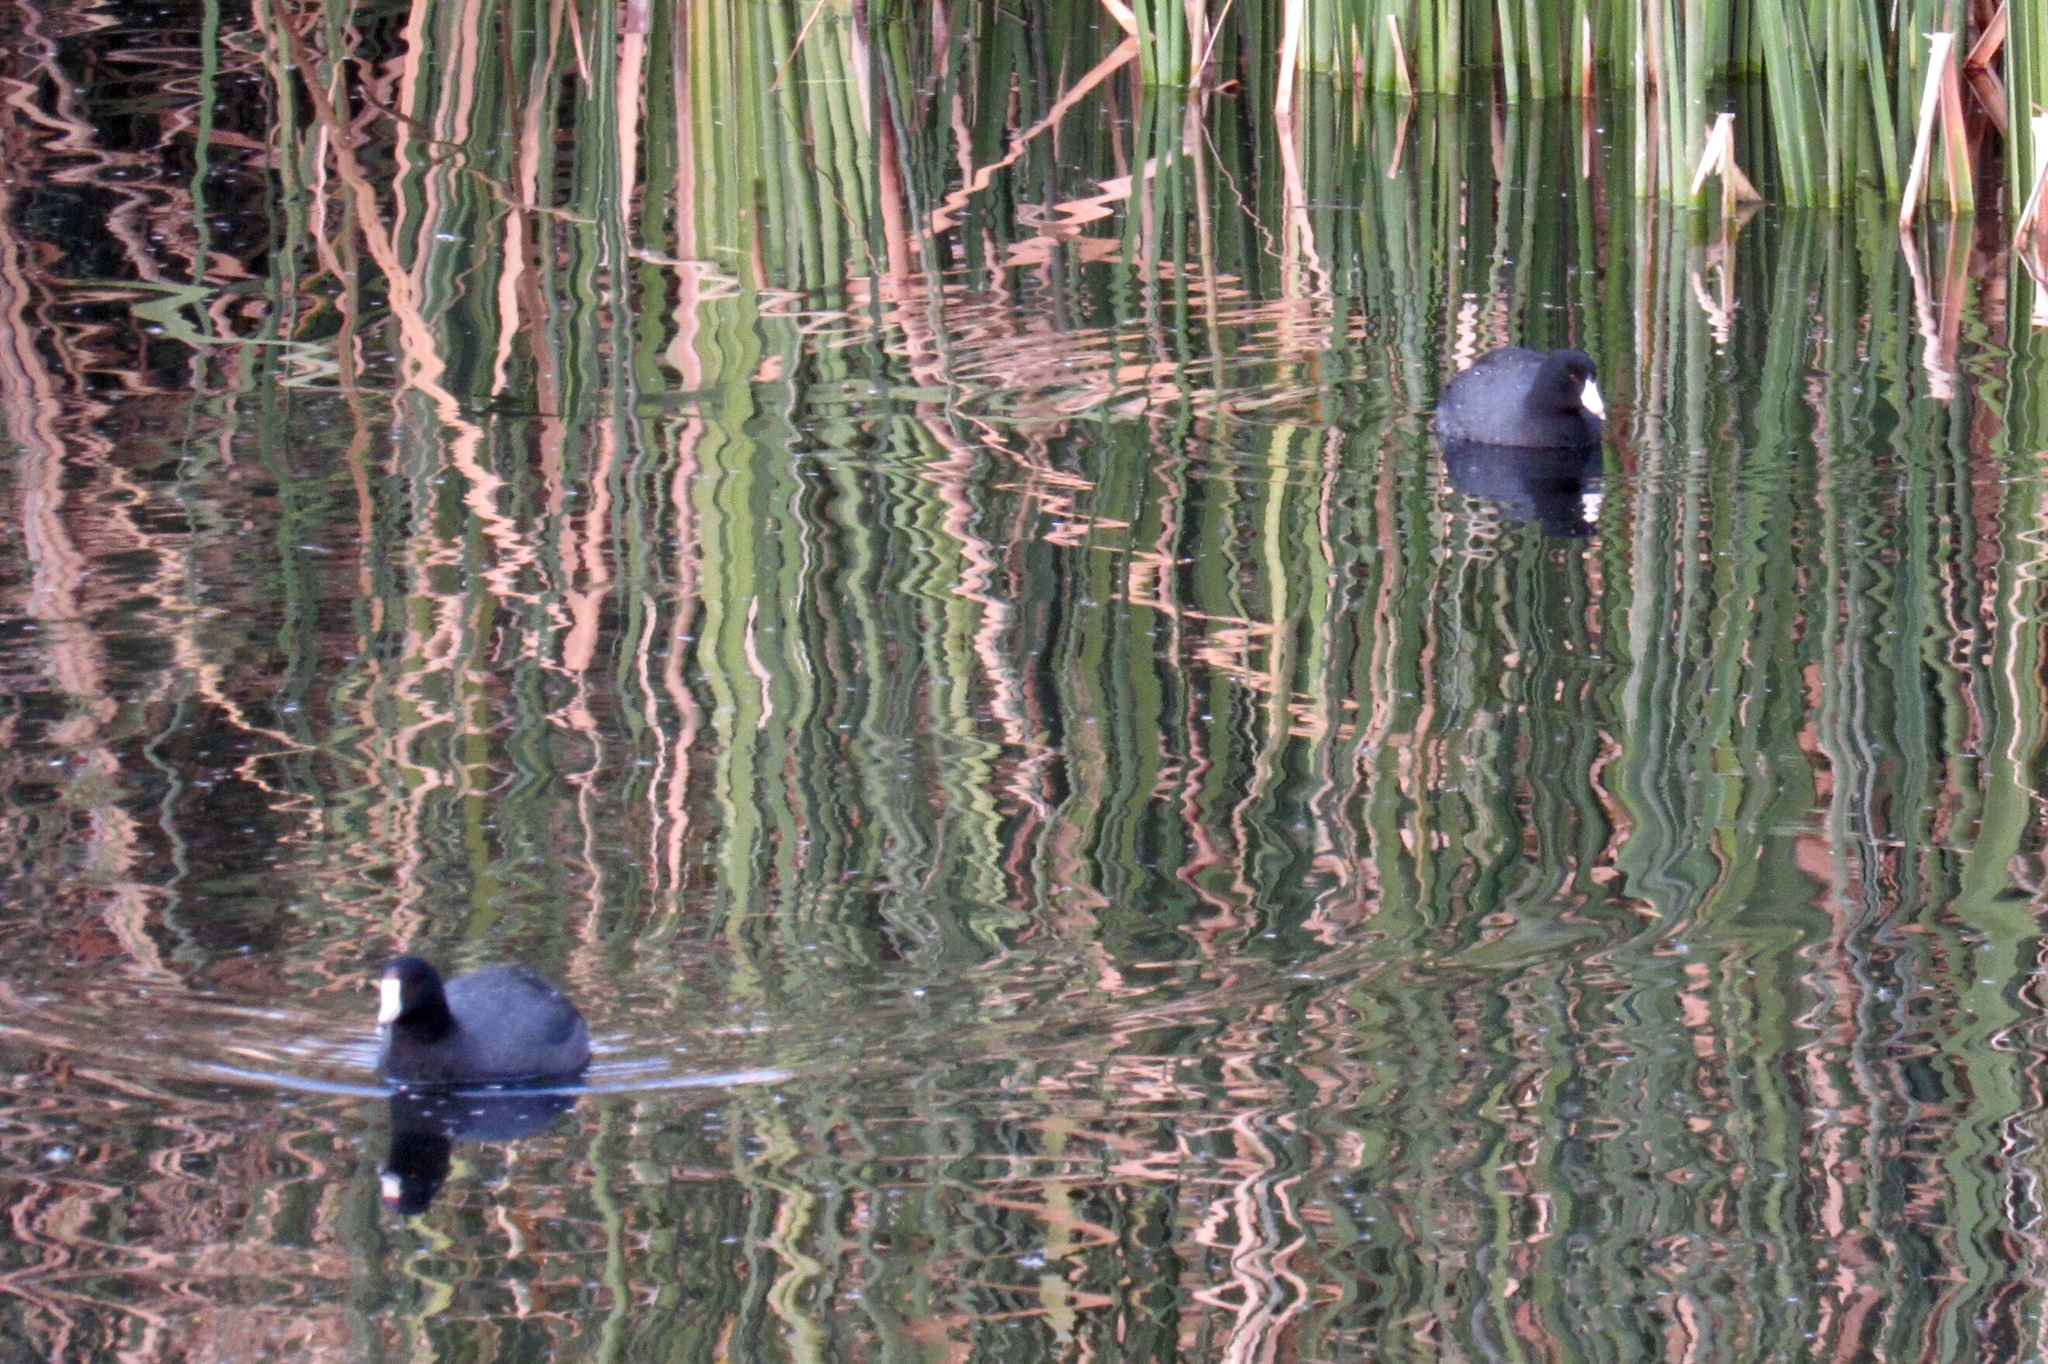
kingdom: Animalia
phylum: Chordata
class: Aves
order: Gruiformes
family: Rallidae
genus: Fulica
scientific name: Fulica americana
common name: American coot
